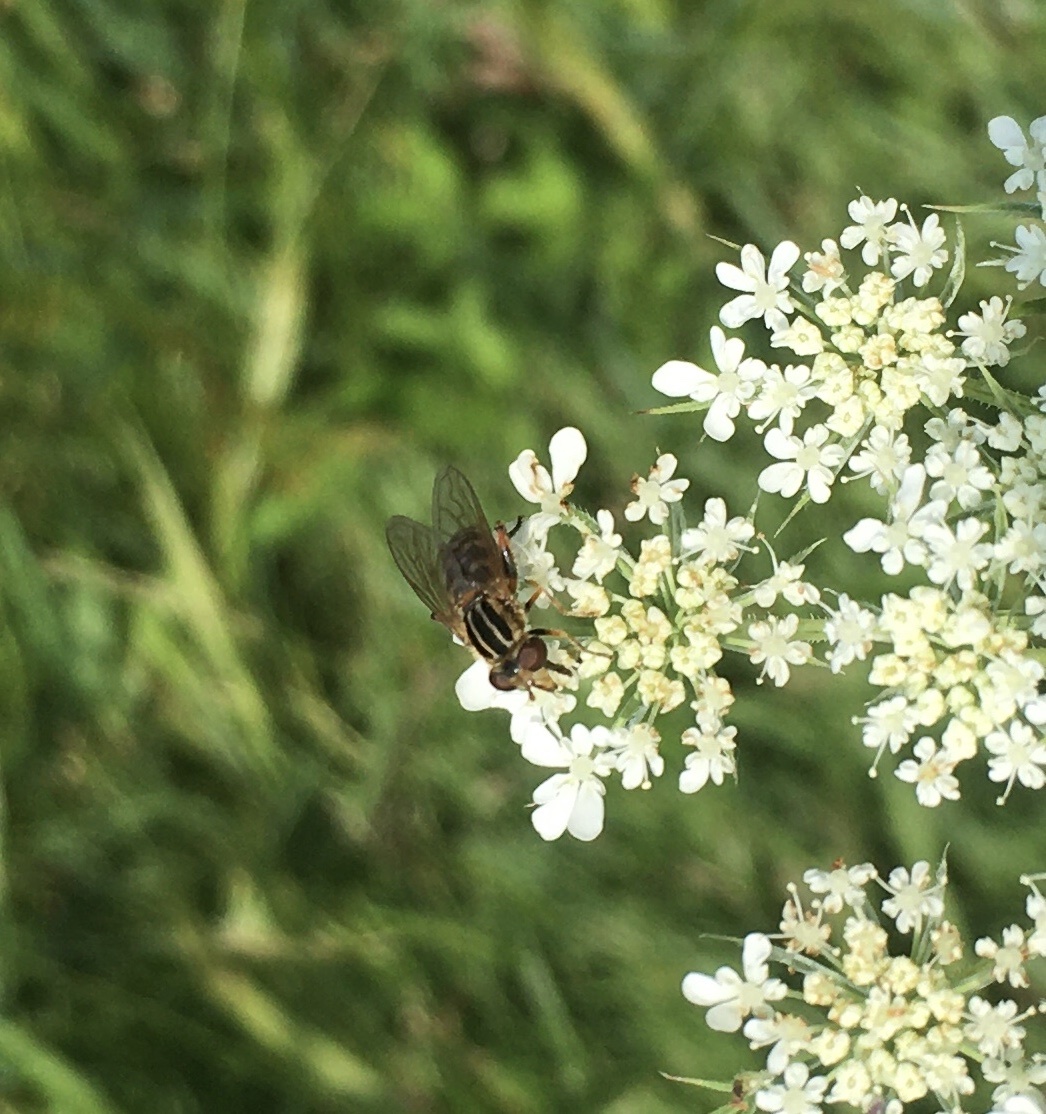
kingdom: Animalia
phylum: Arthropoda
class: Insecta
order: Diptera
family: Syrphidae
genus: Eurimyia
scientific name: Eurimyia stipatus
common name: Long-nosed swamp fly
